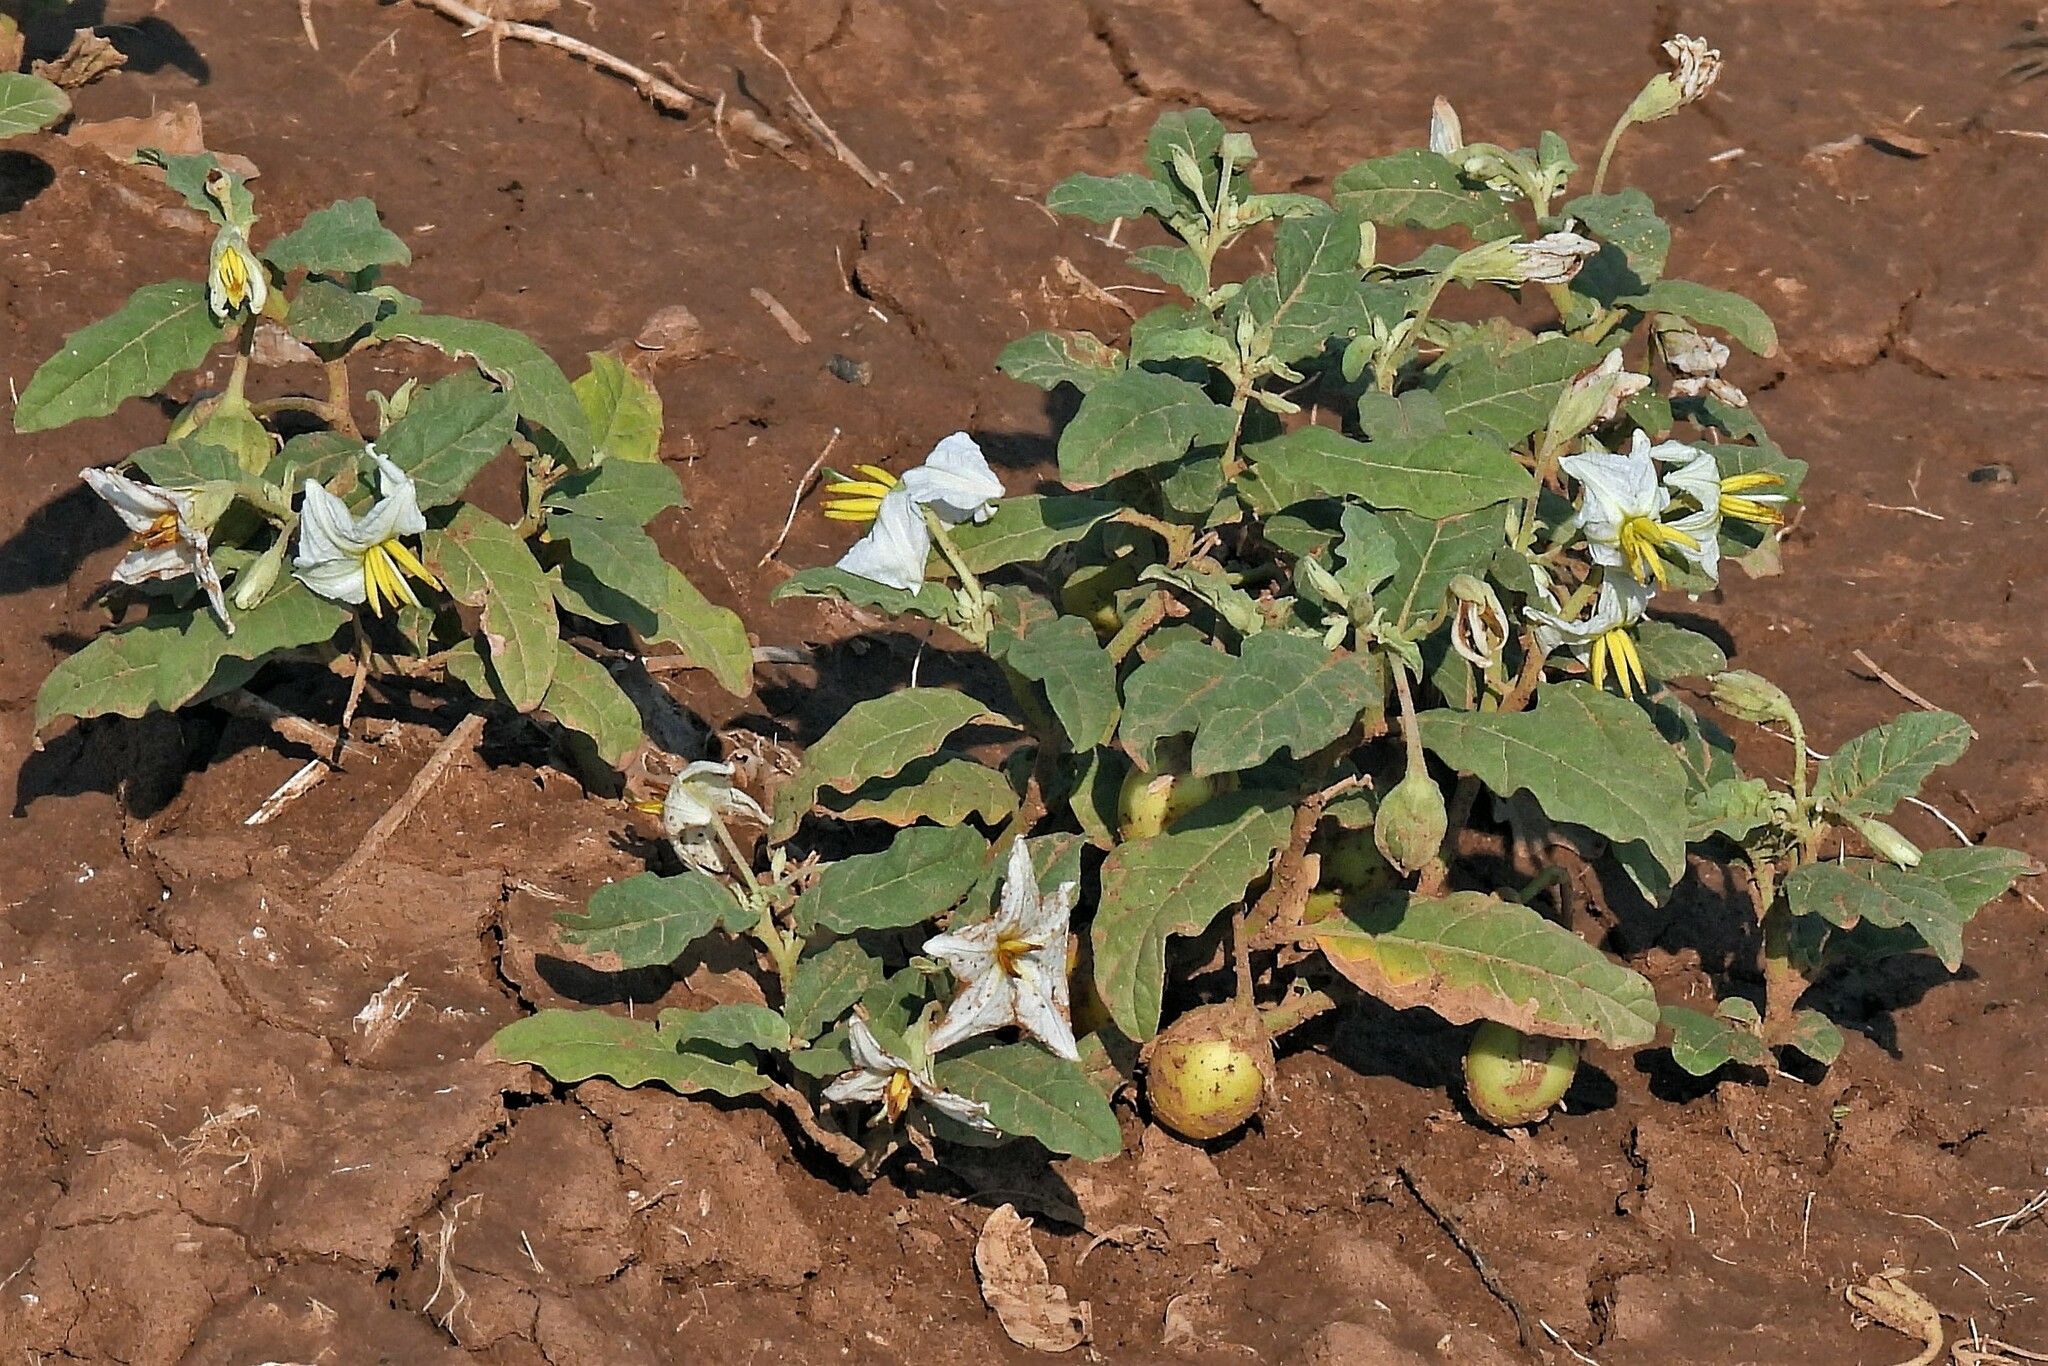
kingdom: Plantae
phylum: Tracheophyta
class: Magnoliopsida
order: Solanales
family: Solanaceae
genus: Solanum
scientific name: Solanum aridum
